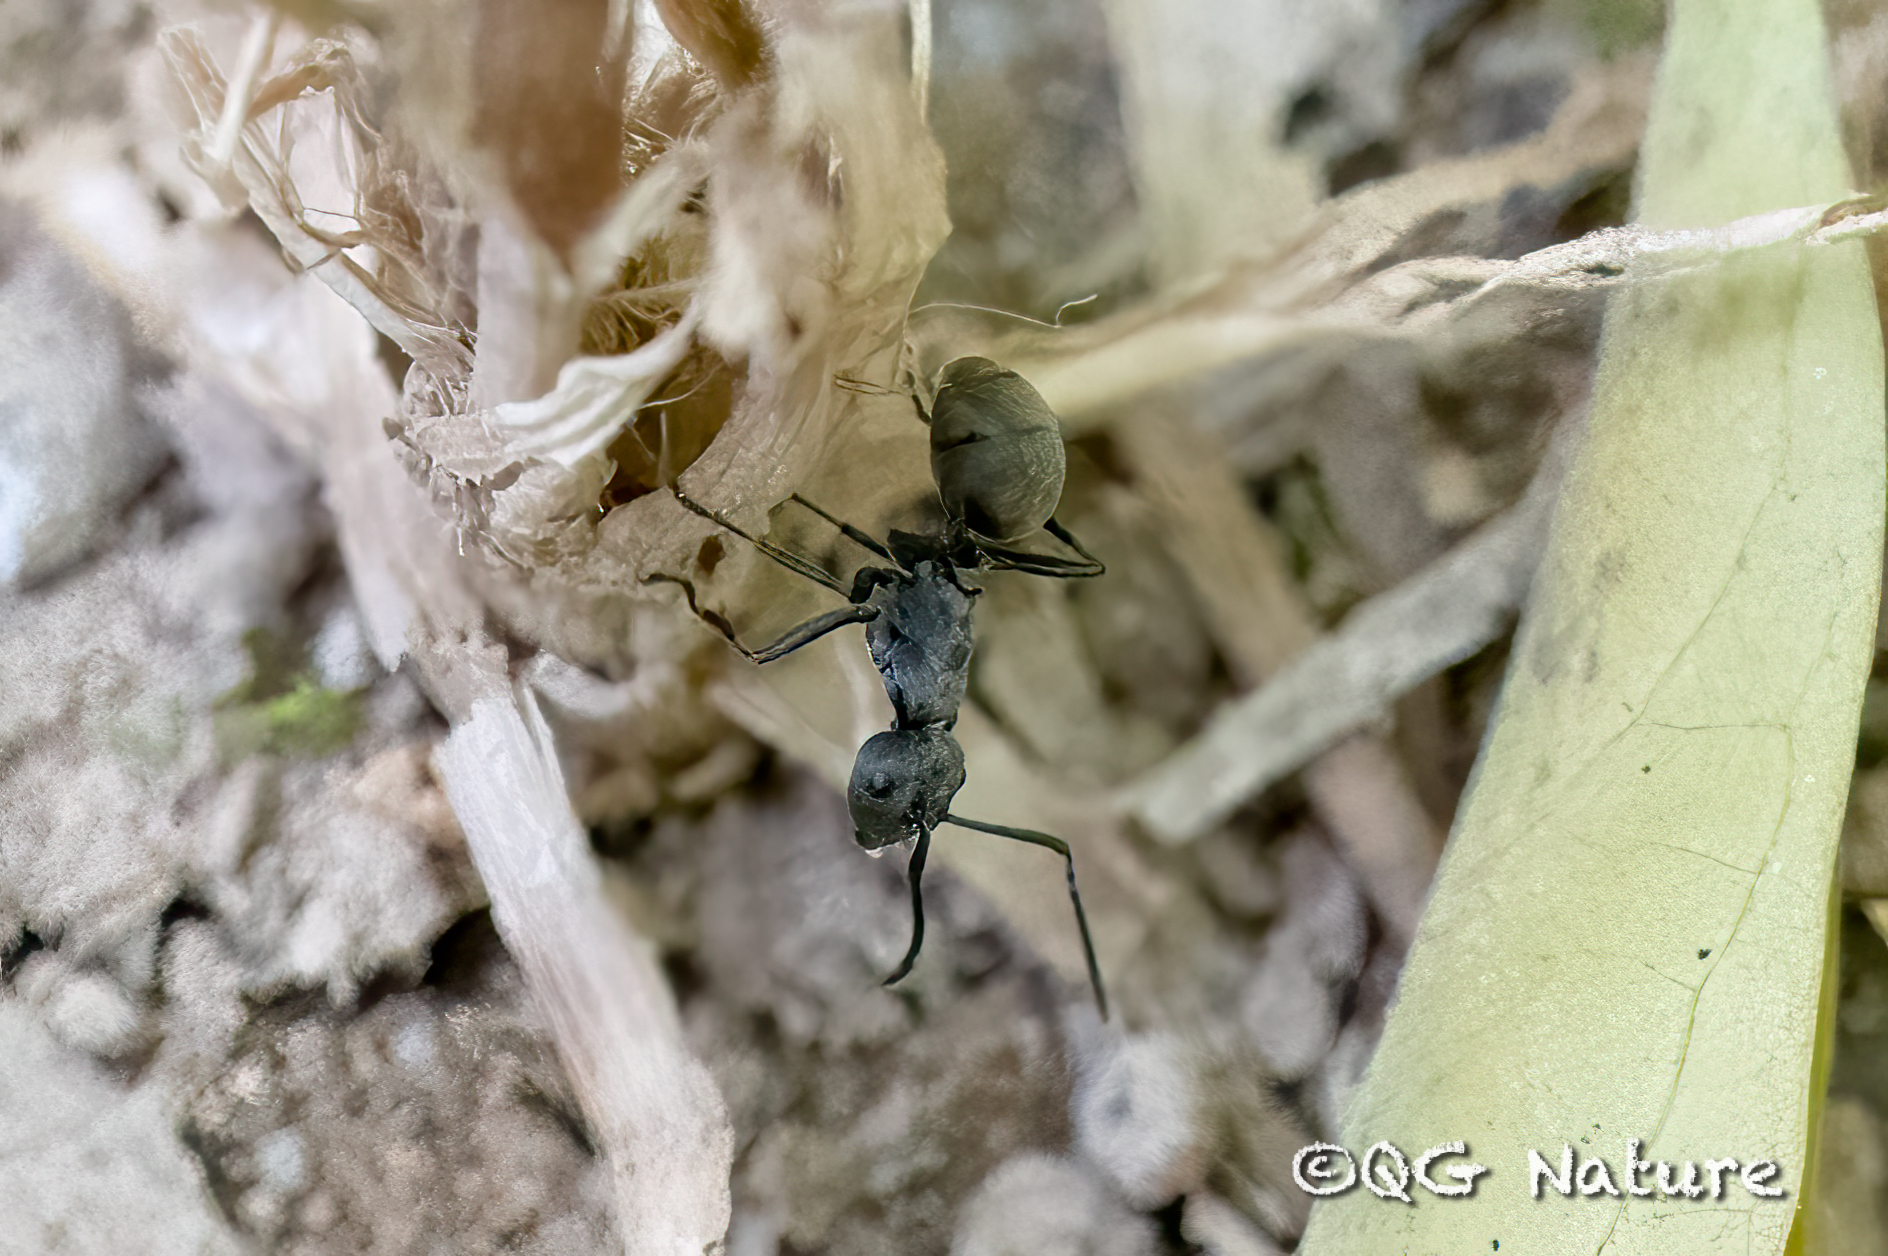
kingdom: Animalia
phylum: Arthropoda
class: Insecta
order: Hymenoptera
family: Formicidae
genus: Polyrhachis
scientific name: Polyrhachis dives
